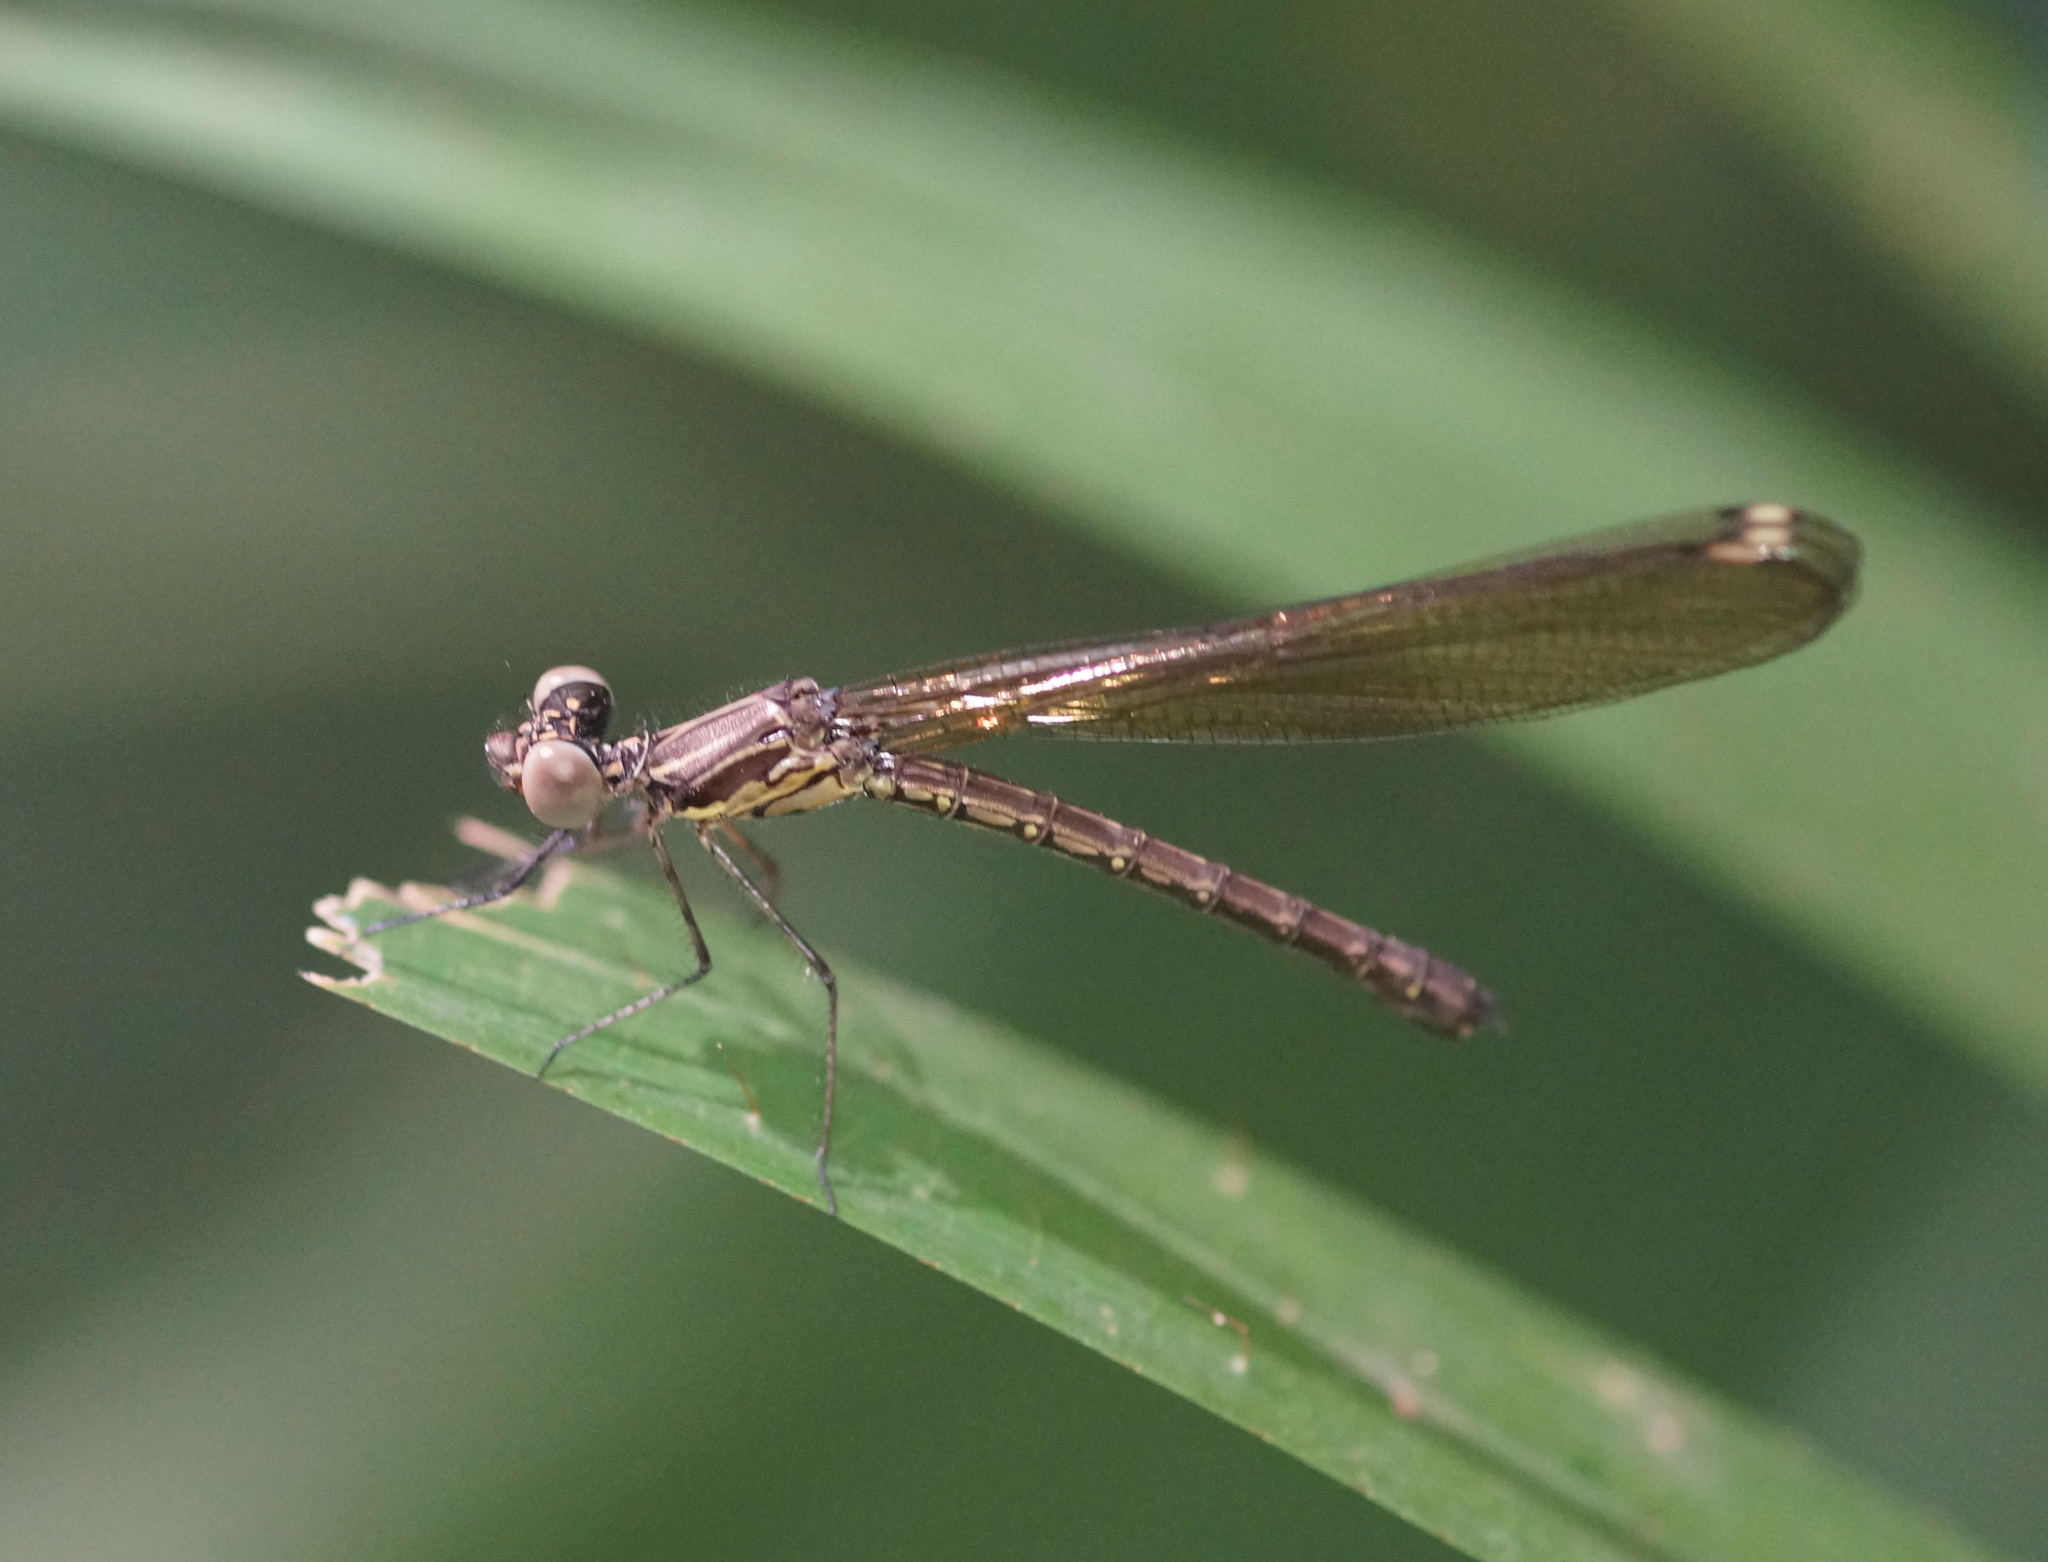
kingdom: Animalia
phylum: Arthropoda
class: Insecta
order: Odonata
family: Chlorocyphidae
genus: Heliocypha
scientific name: Heliocypha biforata
